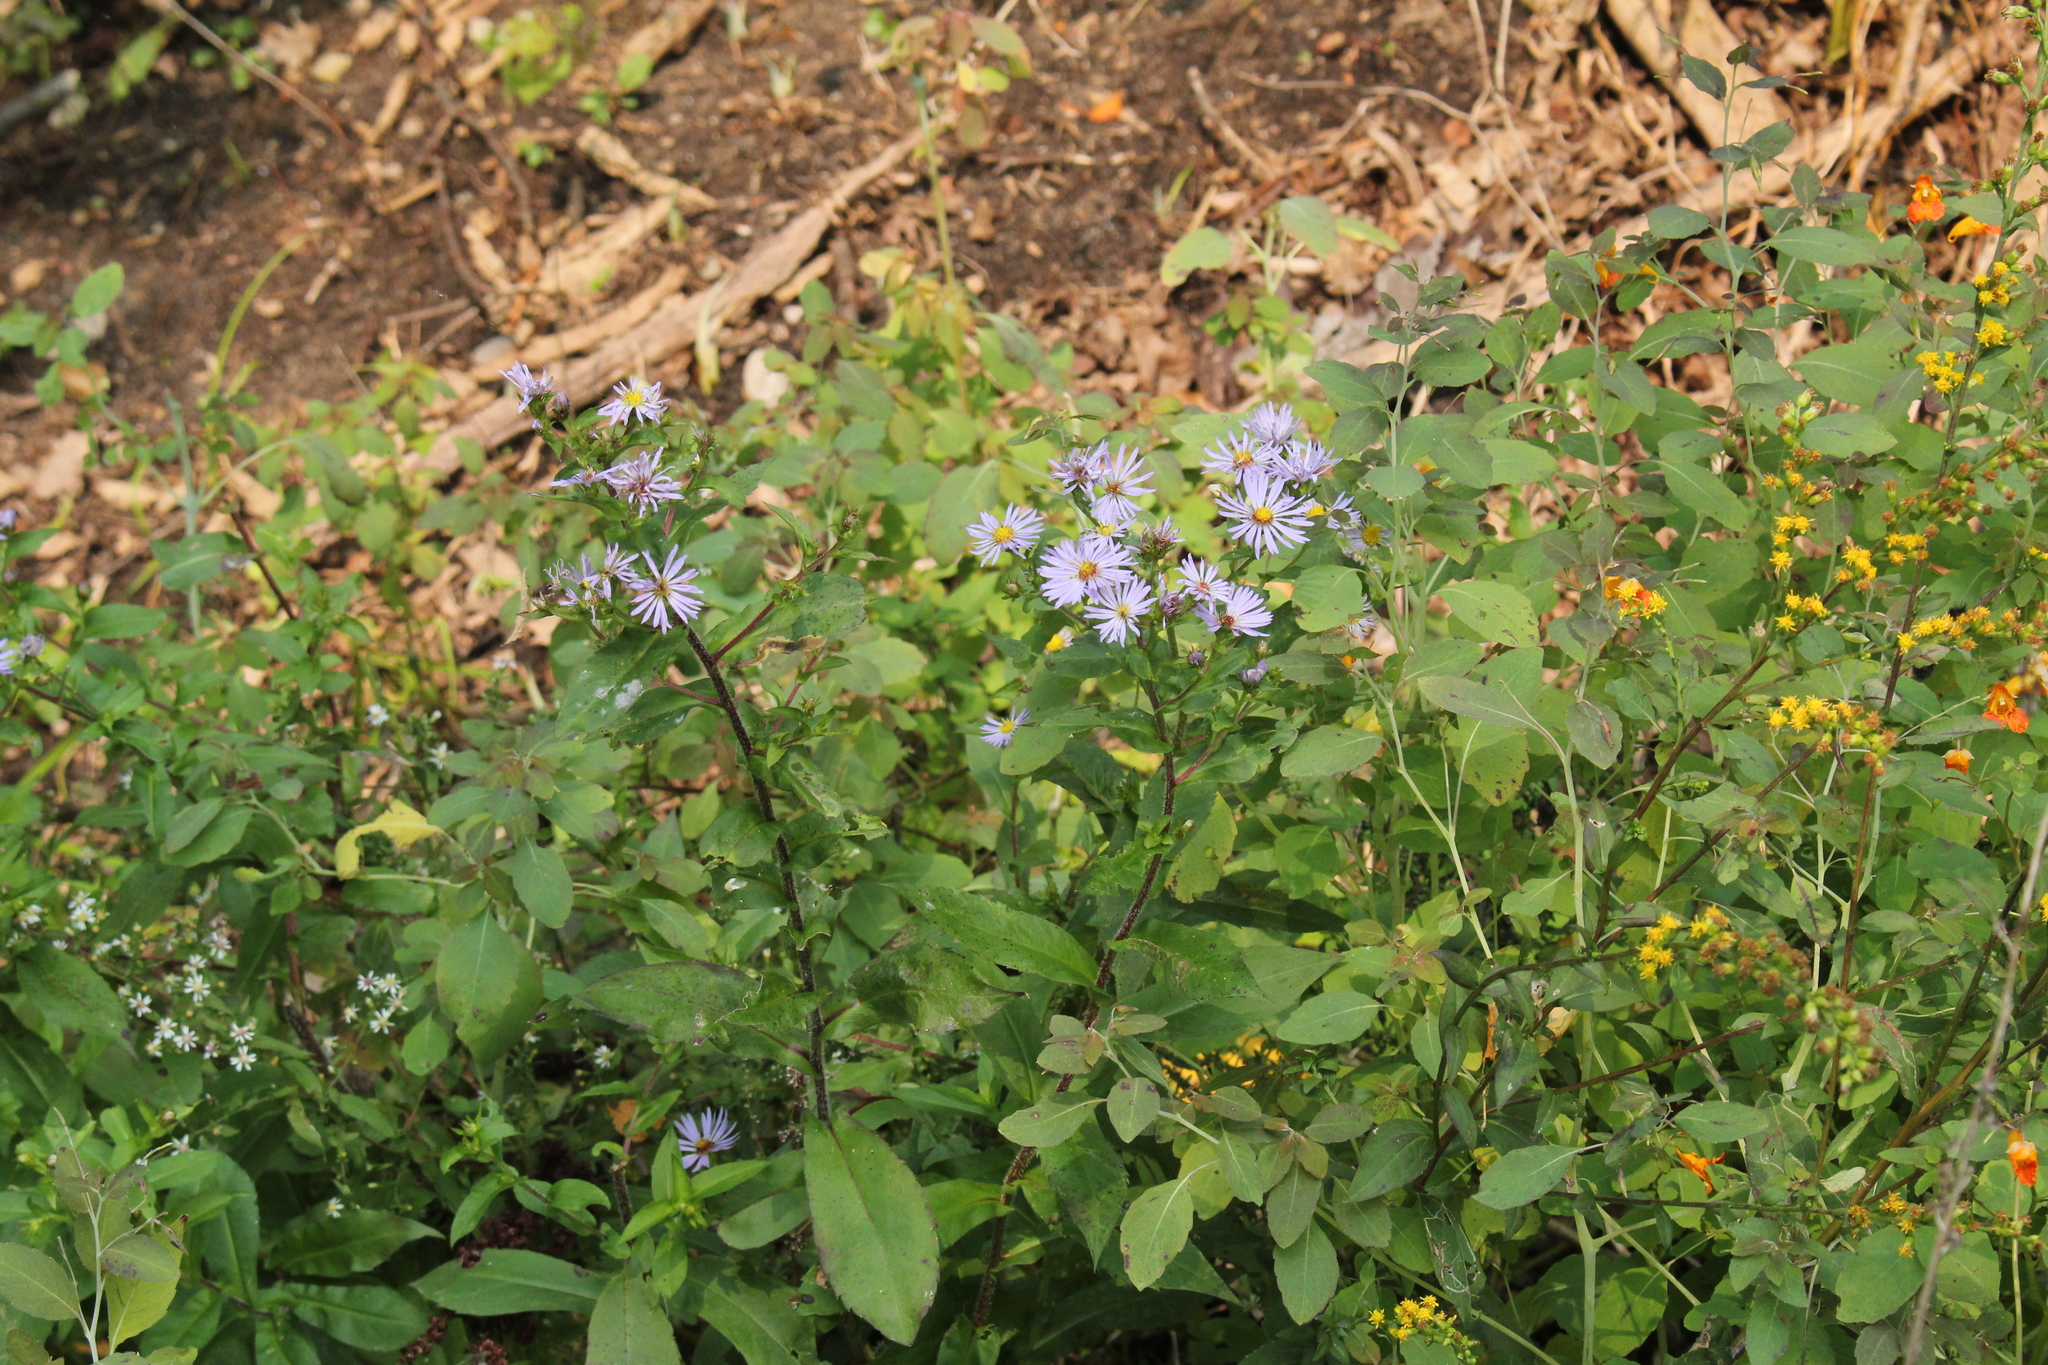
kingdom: Plantae
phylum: Tracheophyta
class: Magnoliopsida
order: Asterales
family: Asteraceae
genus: Symphyotrichum
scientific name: Symphyotrichum puniceum
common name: Bog aster
